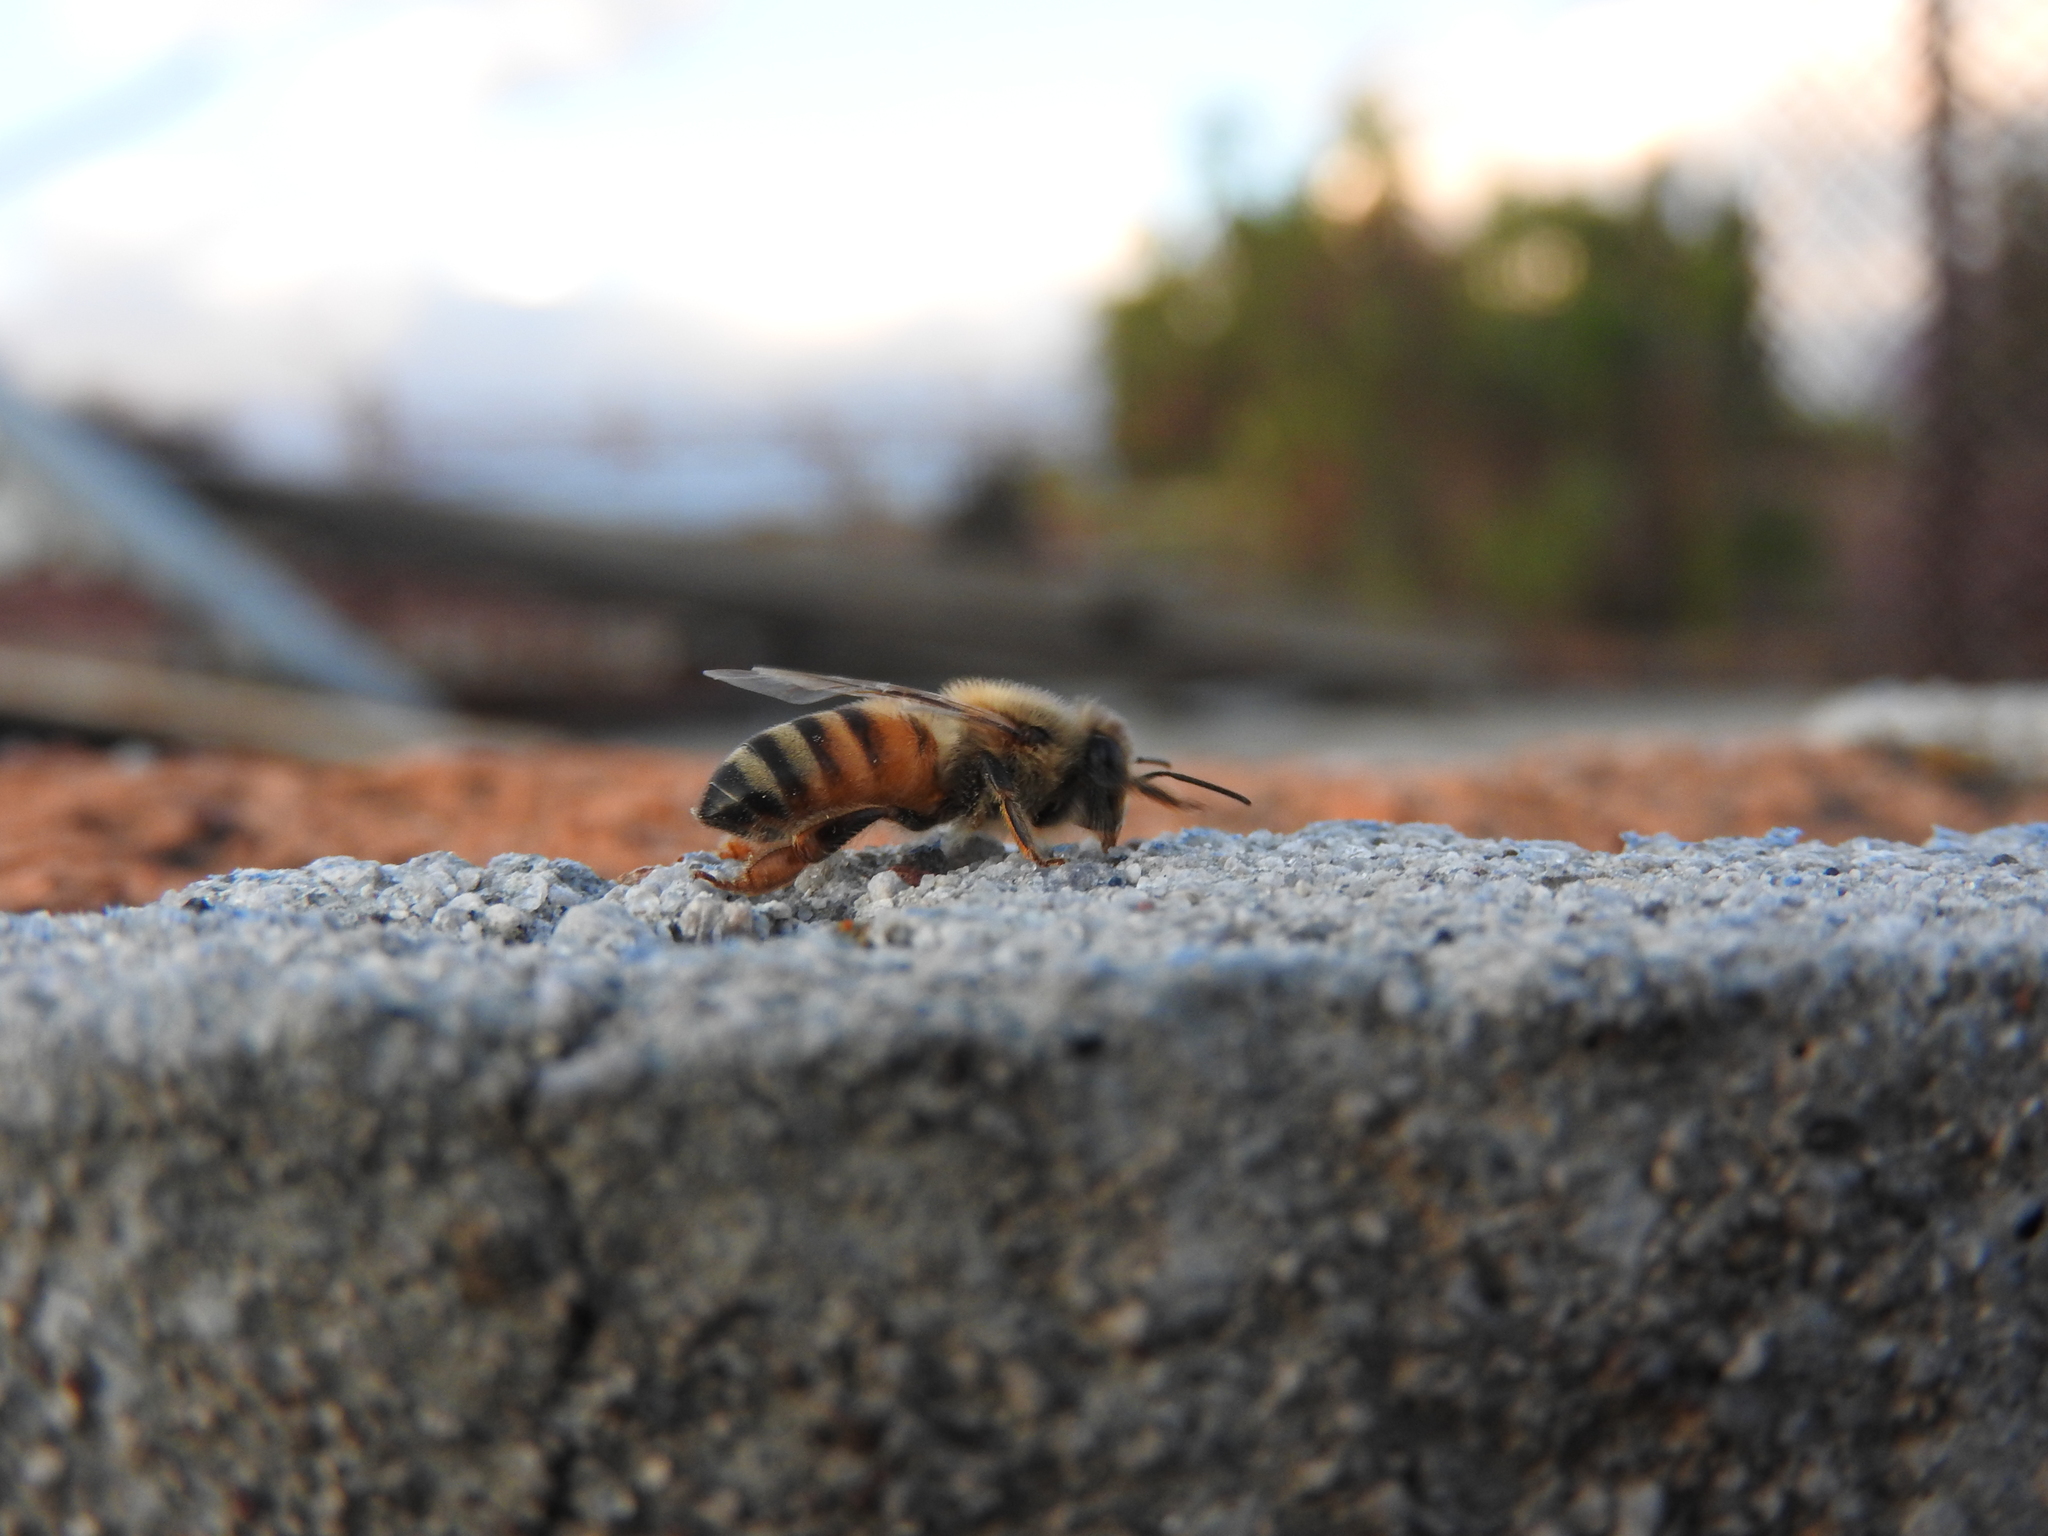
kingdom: Animalia
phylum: Arthropoda
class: Insecta
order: Hymenoptera
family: Apidae
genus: Apis
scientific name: Apis mellifera
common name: Honey bee
